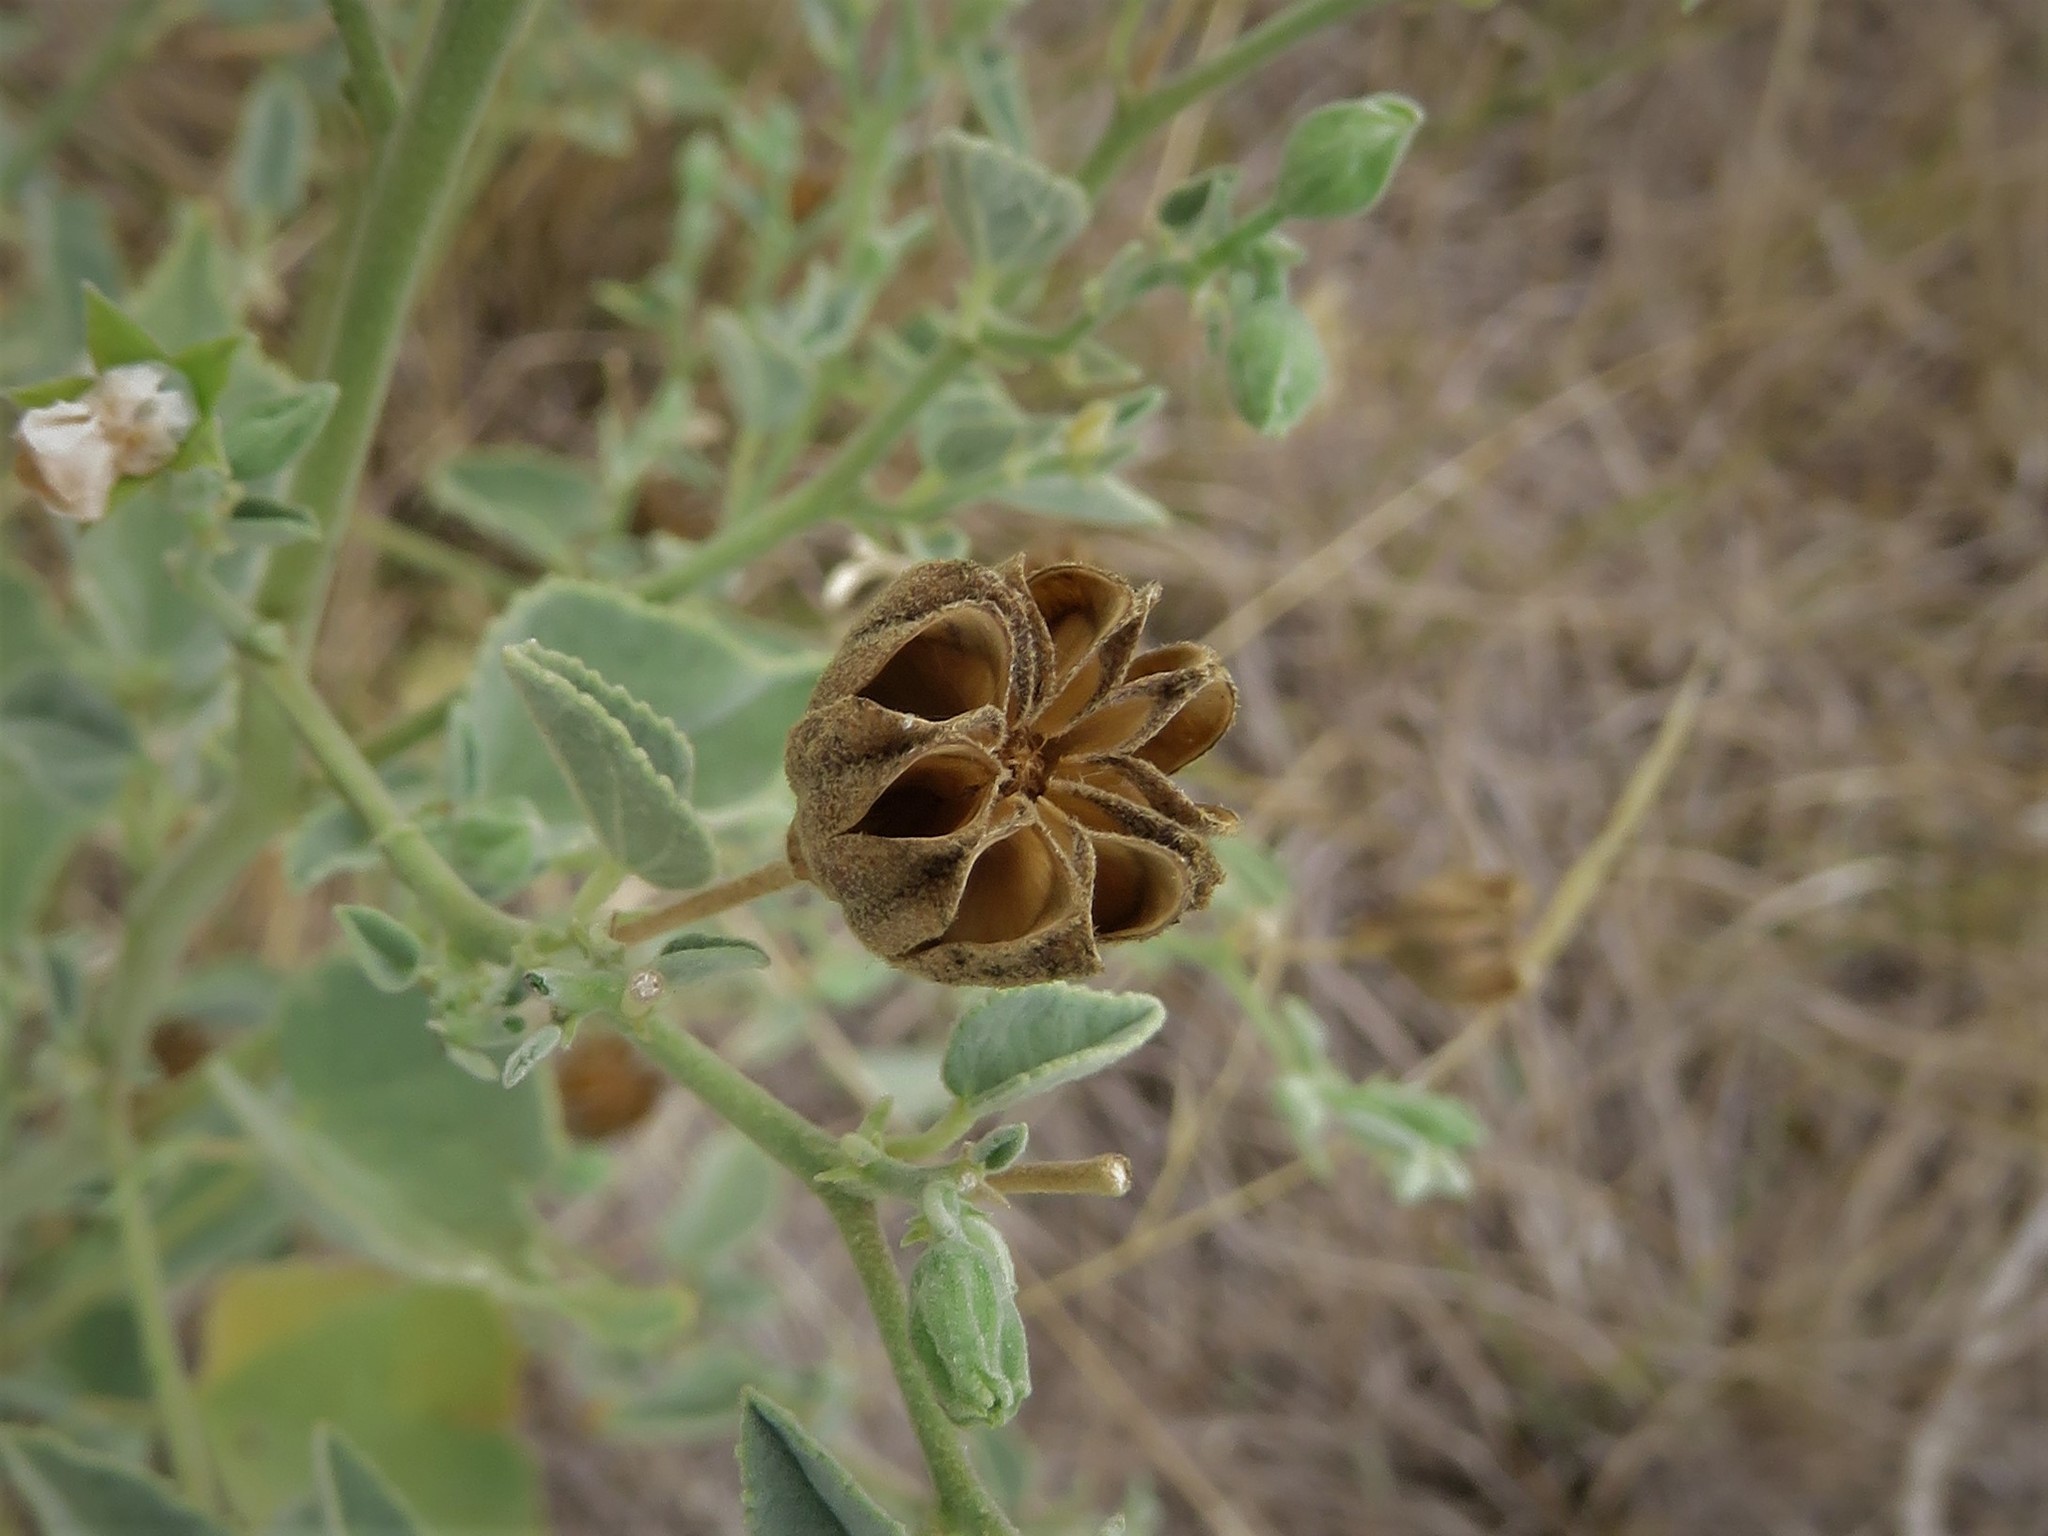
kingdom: Plantae
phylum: Tracheophyta
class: Magnoliopsida
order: Malvales
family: Malvaceae
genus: Abutilon
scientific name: Abutilon fruticosum
